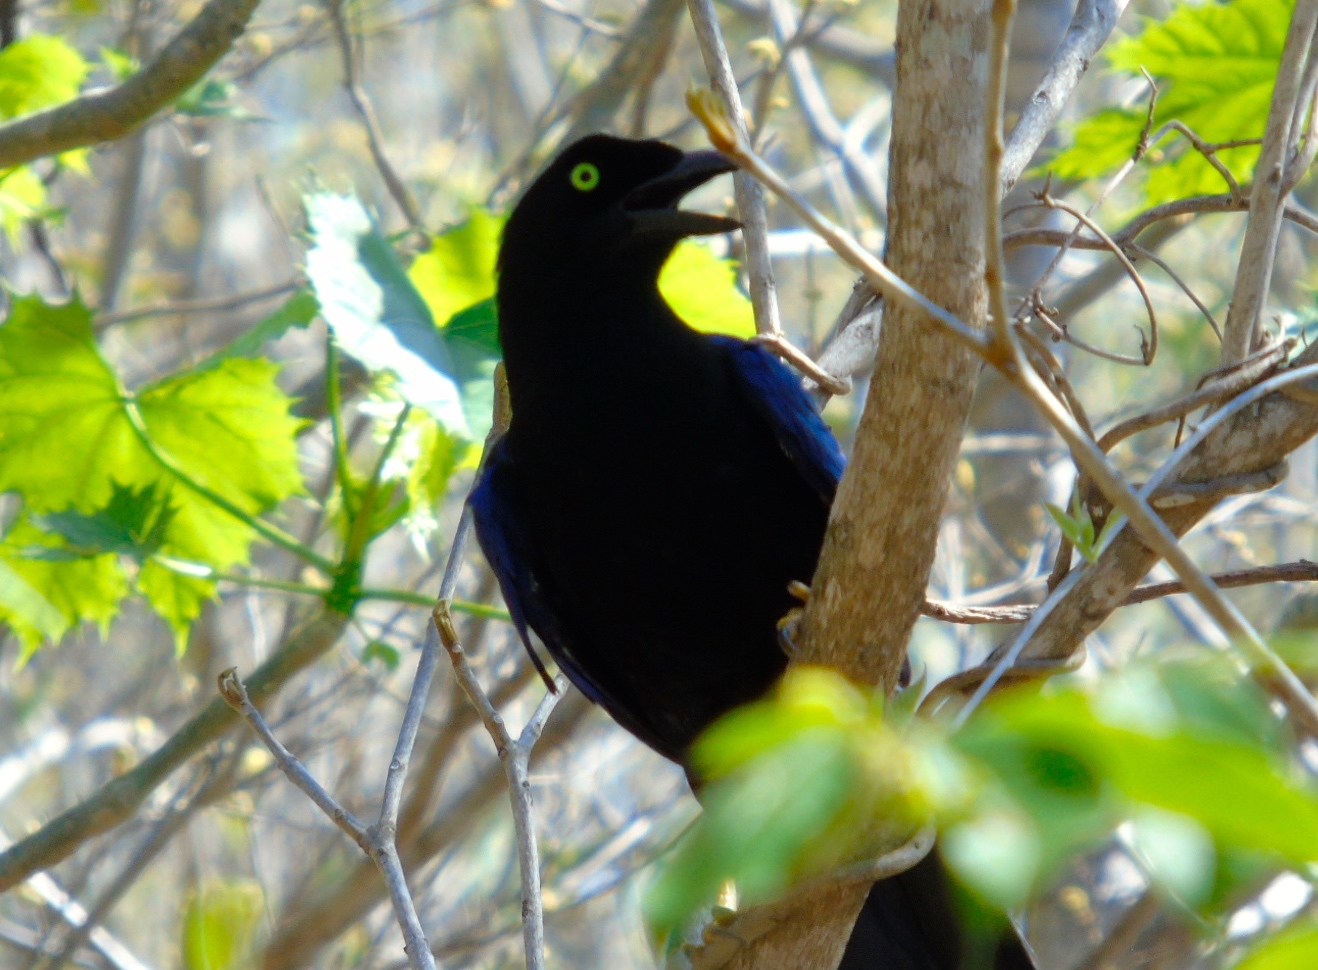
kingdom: Animalia
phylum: Chordata
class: Aves
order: Passeriformes
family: Corvidae
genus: Cyanocorax
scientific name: Cyanocorax beecheii
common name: Purplish-backed jay
